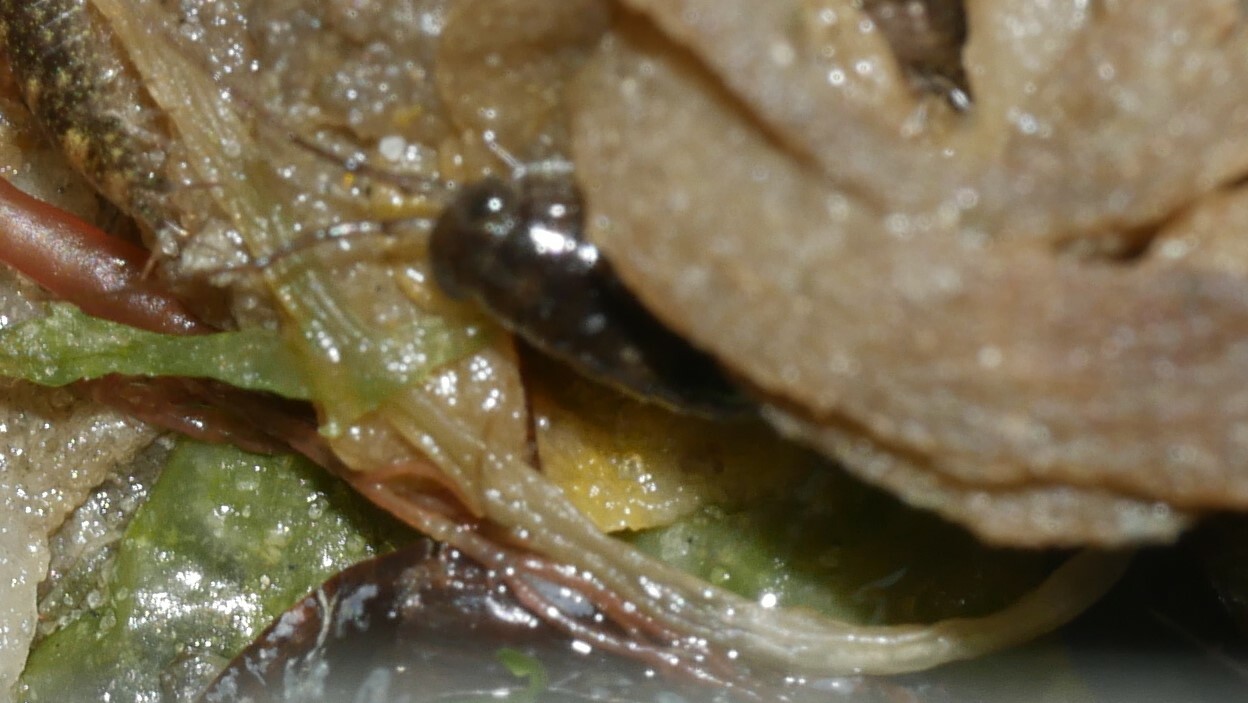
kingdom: Animalia
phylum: Arthropoda
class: Malacostraca
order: Isopoda
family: Ligiidae
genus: Ligia
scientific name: Ligia exotica
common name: Wharf roach
